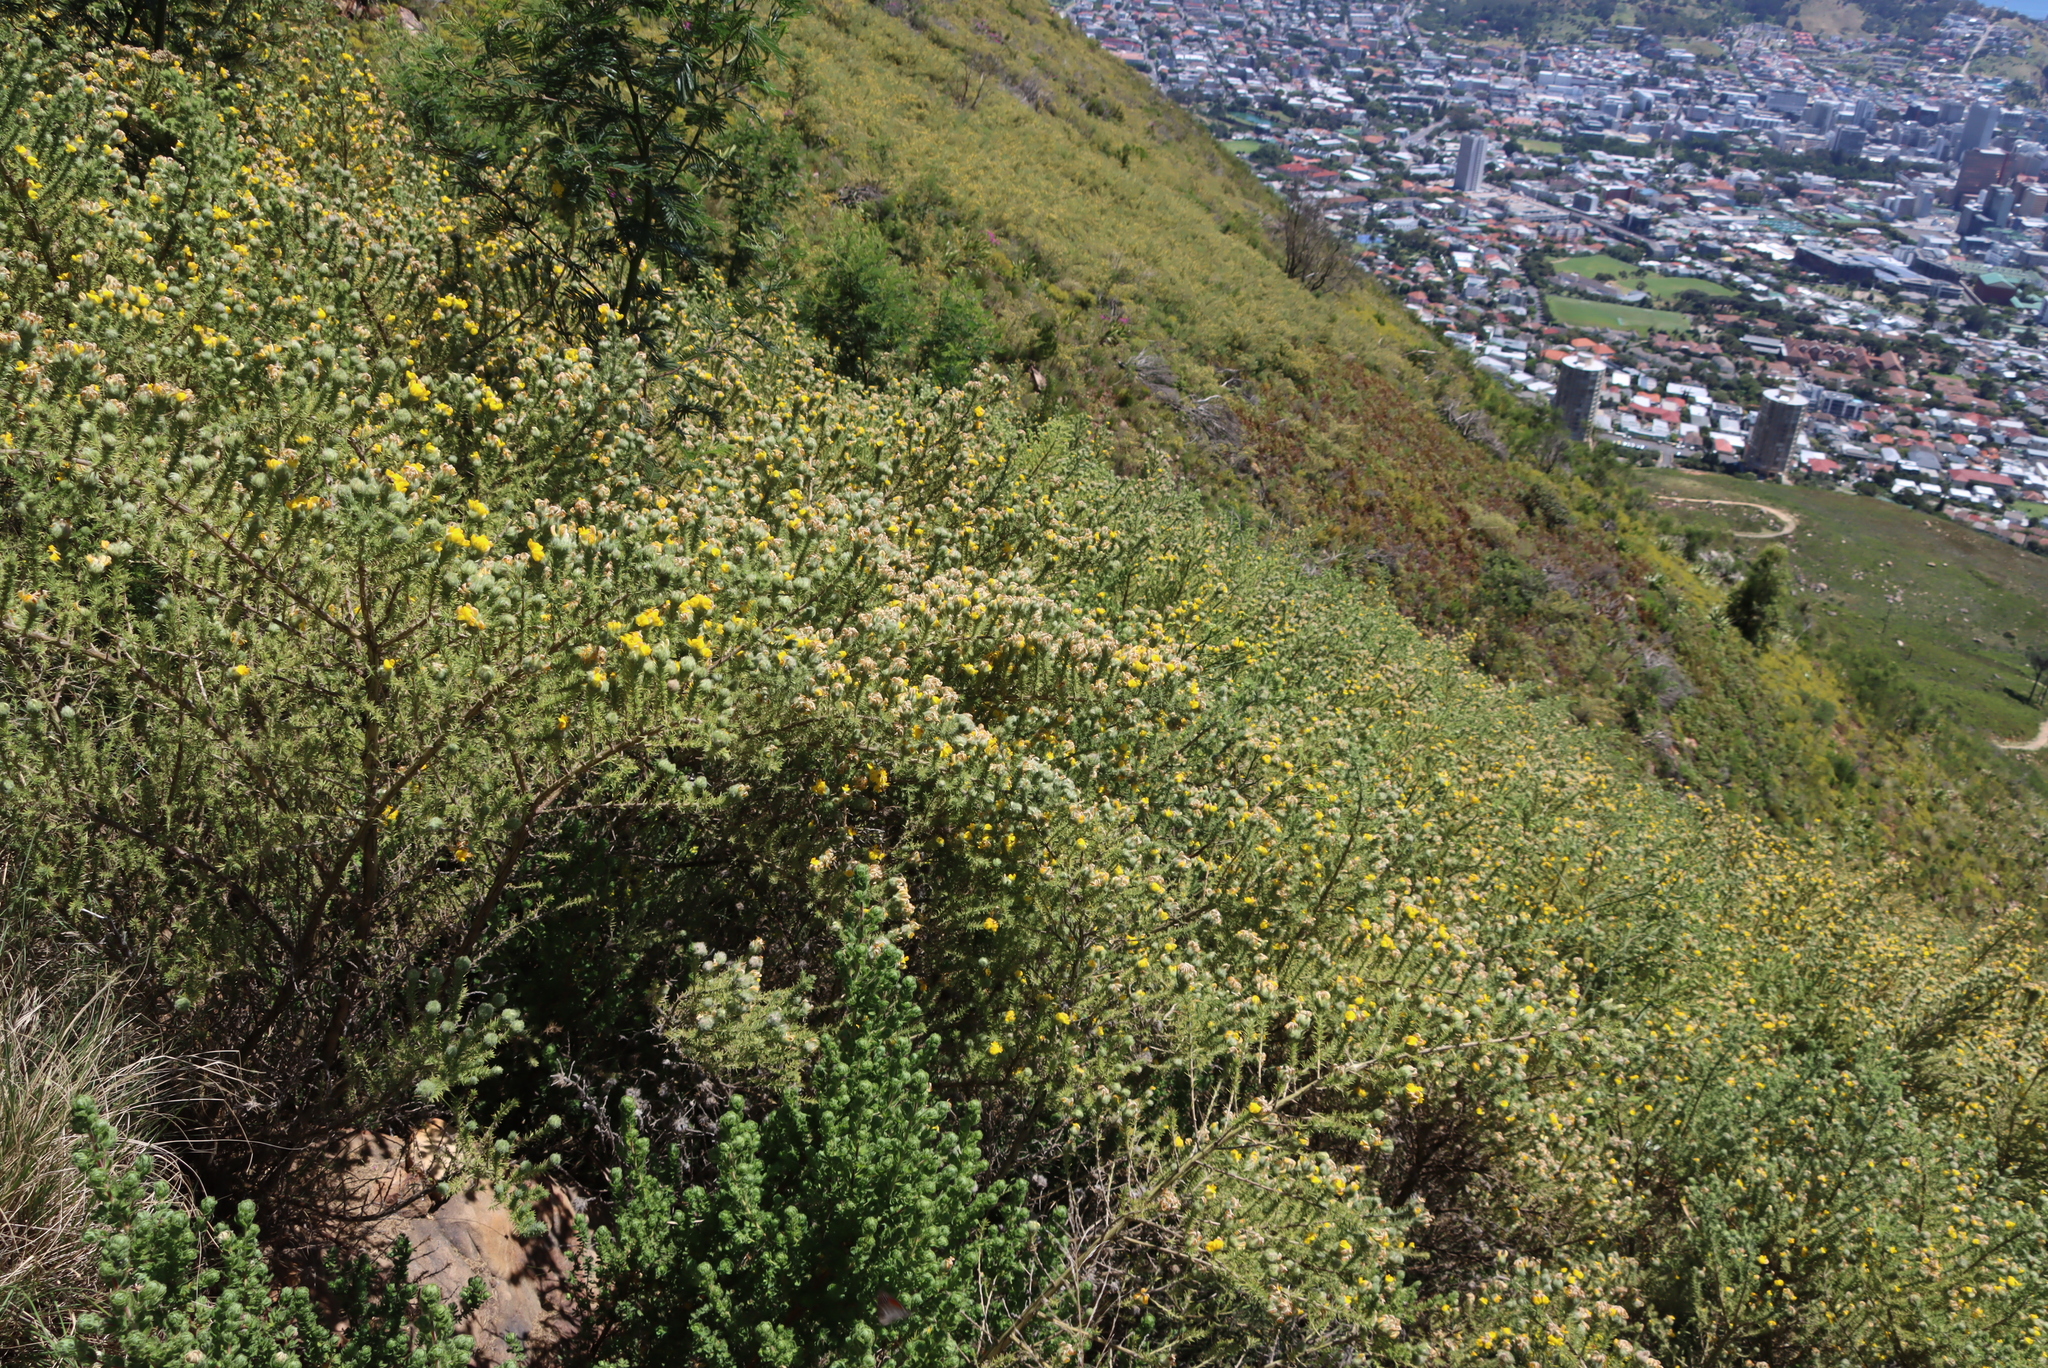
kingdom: Plantae
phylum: Tracheophyta
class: Magnoliopsida
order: Fabales
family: Fabaceae
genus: Aspalathus
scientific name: Aspalathus chenopoda
